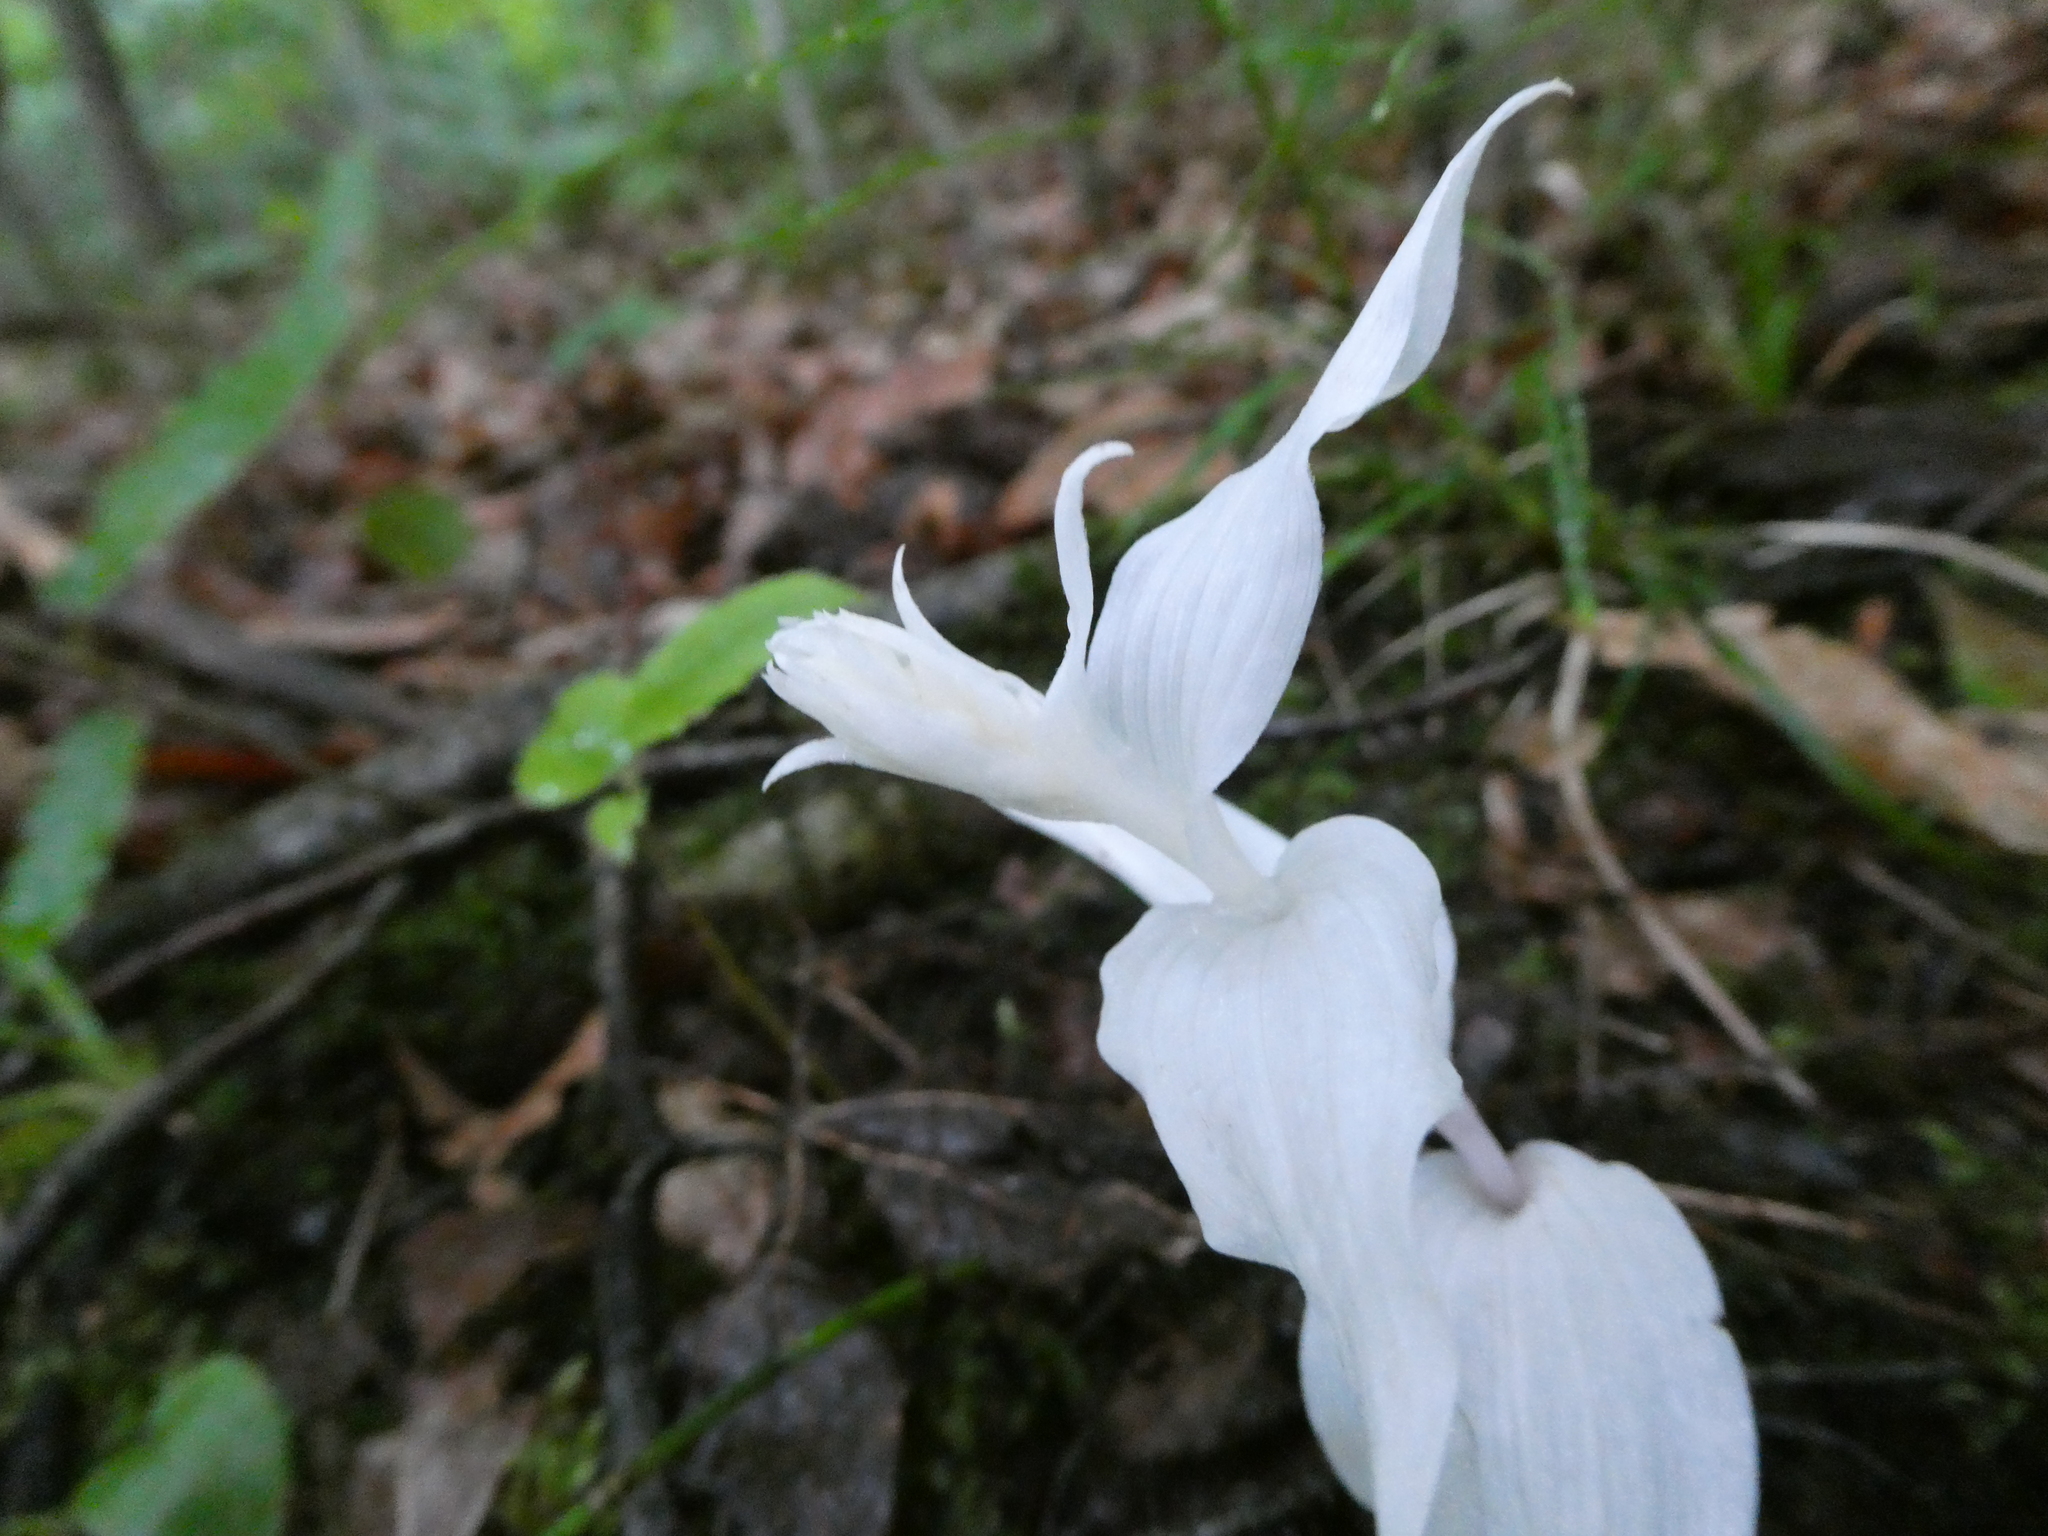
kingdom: Plantae
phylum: Tracheophyta
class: Liliopsida
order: Asparagales
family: Orchidaceae
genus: Epipactis
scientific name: Epipactis helleborine
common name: Broad-leaved helleborine
